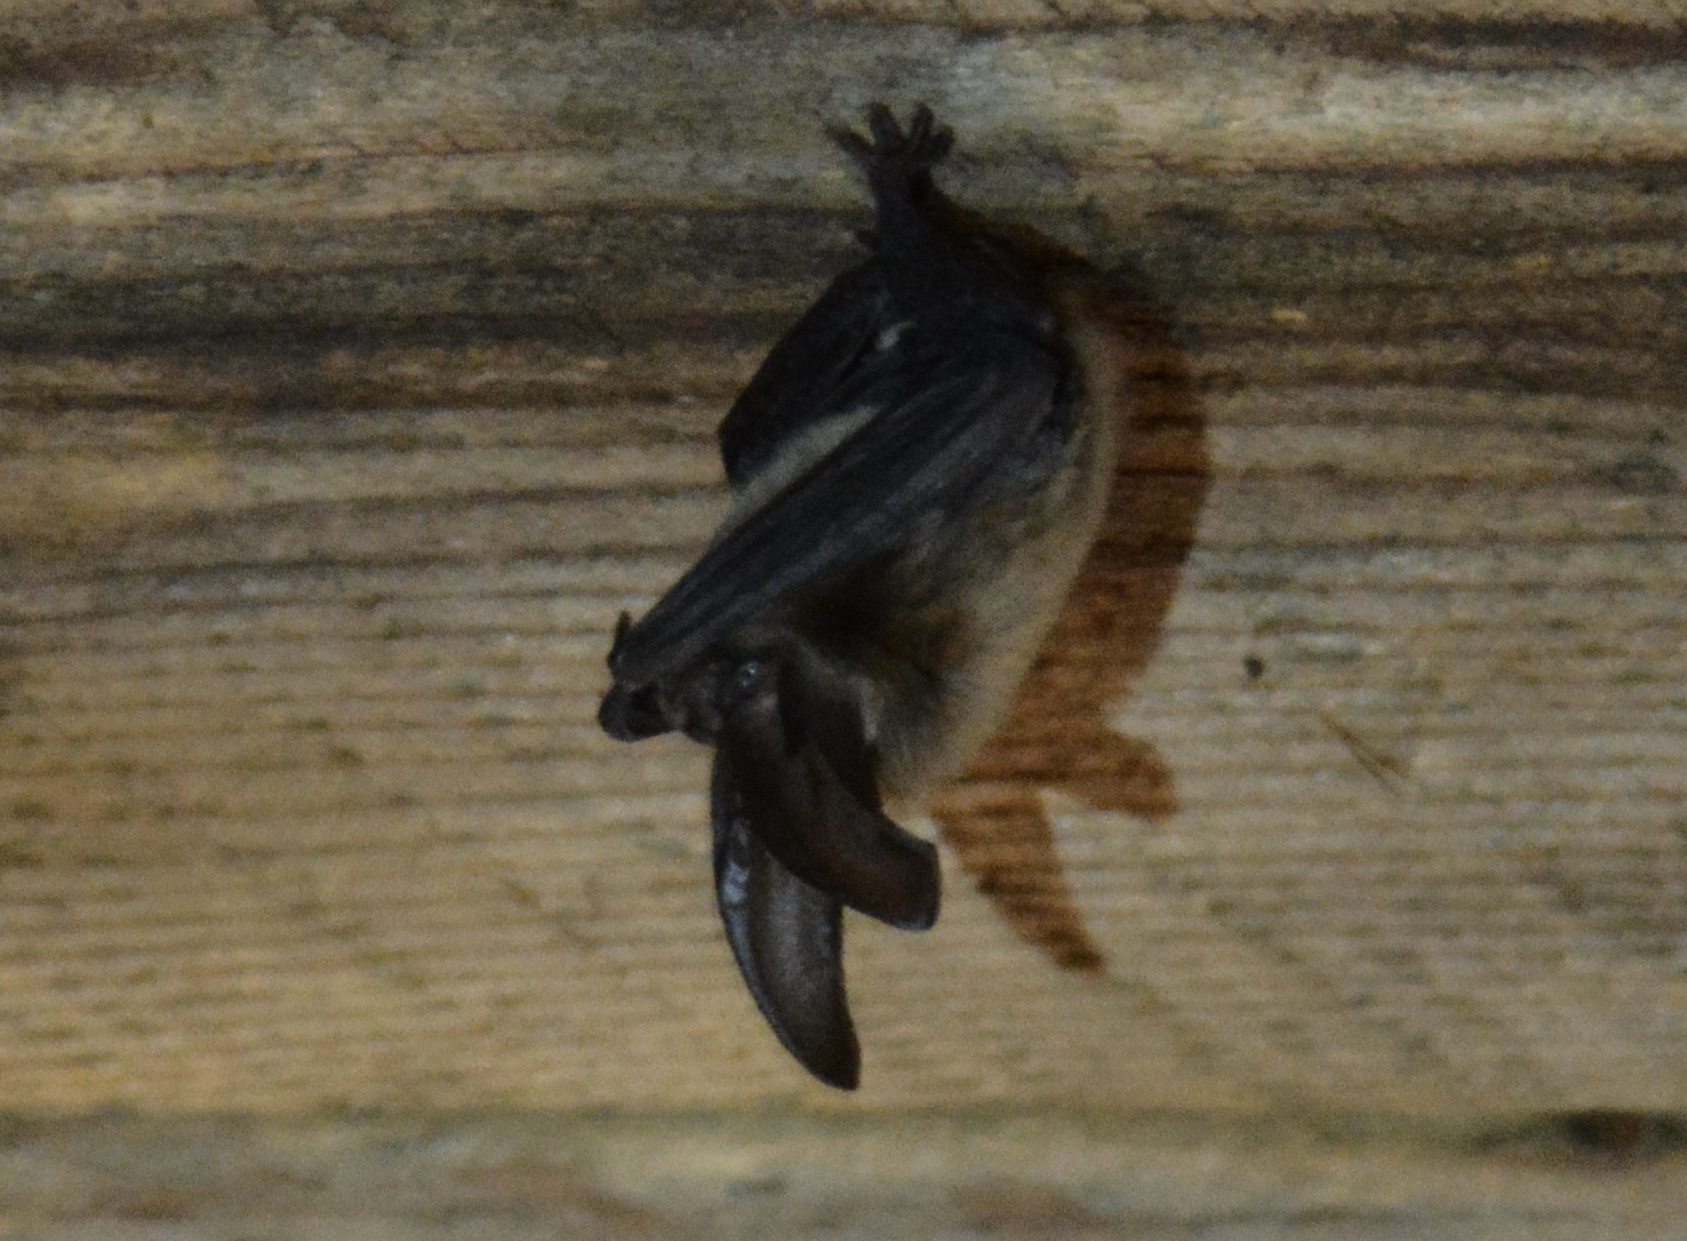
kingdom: Animalia
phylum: Chordata
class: Mammalia
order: Chiroptera
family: Vespertilionidae
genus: Corynorhinus
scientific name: Corynorhinus townsendii
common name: Townsend's big-eared bat
